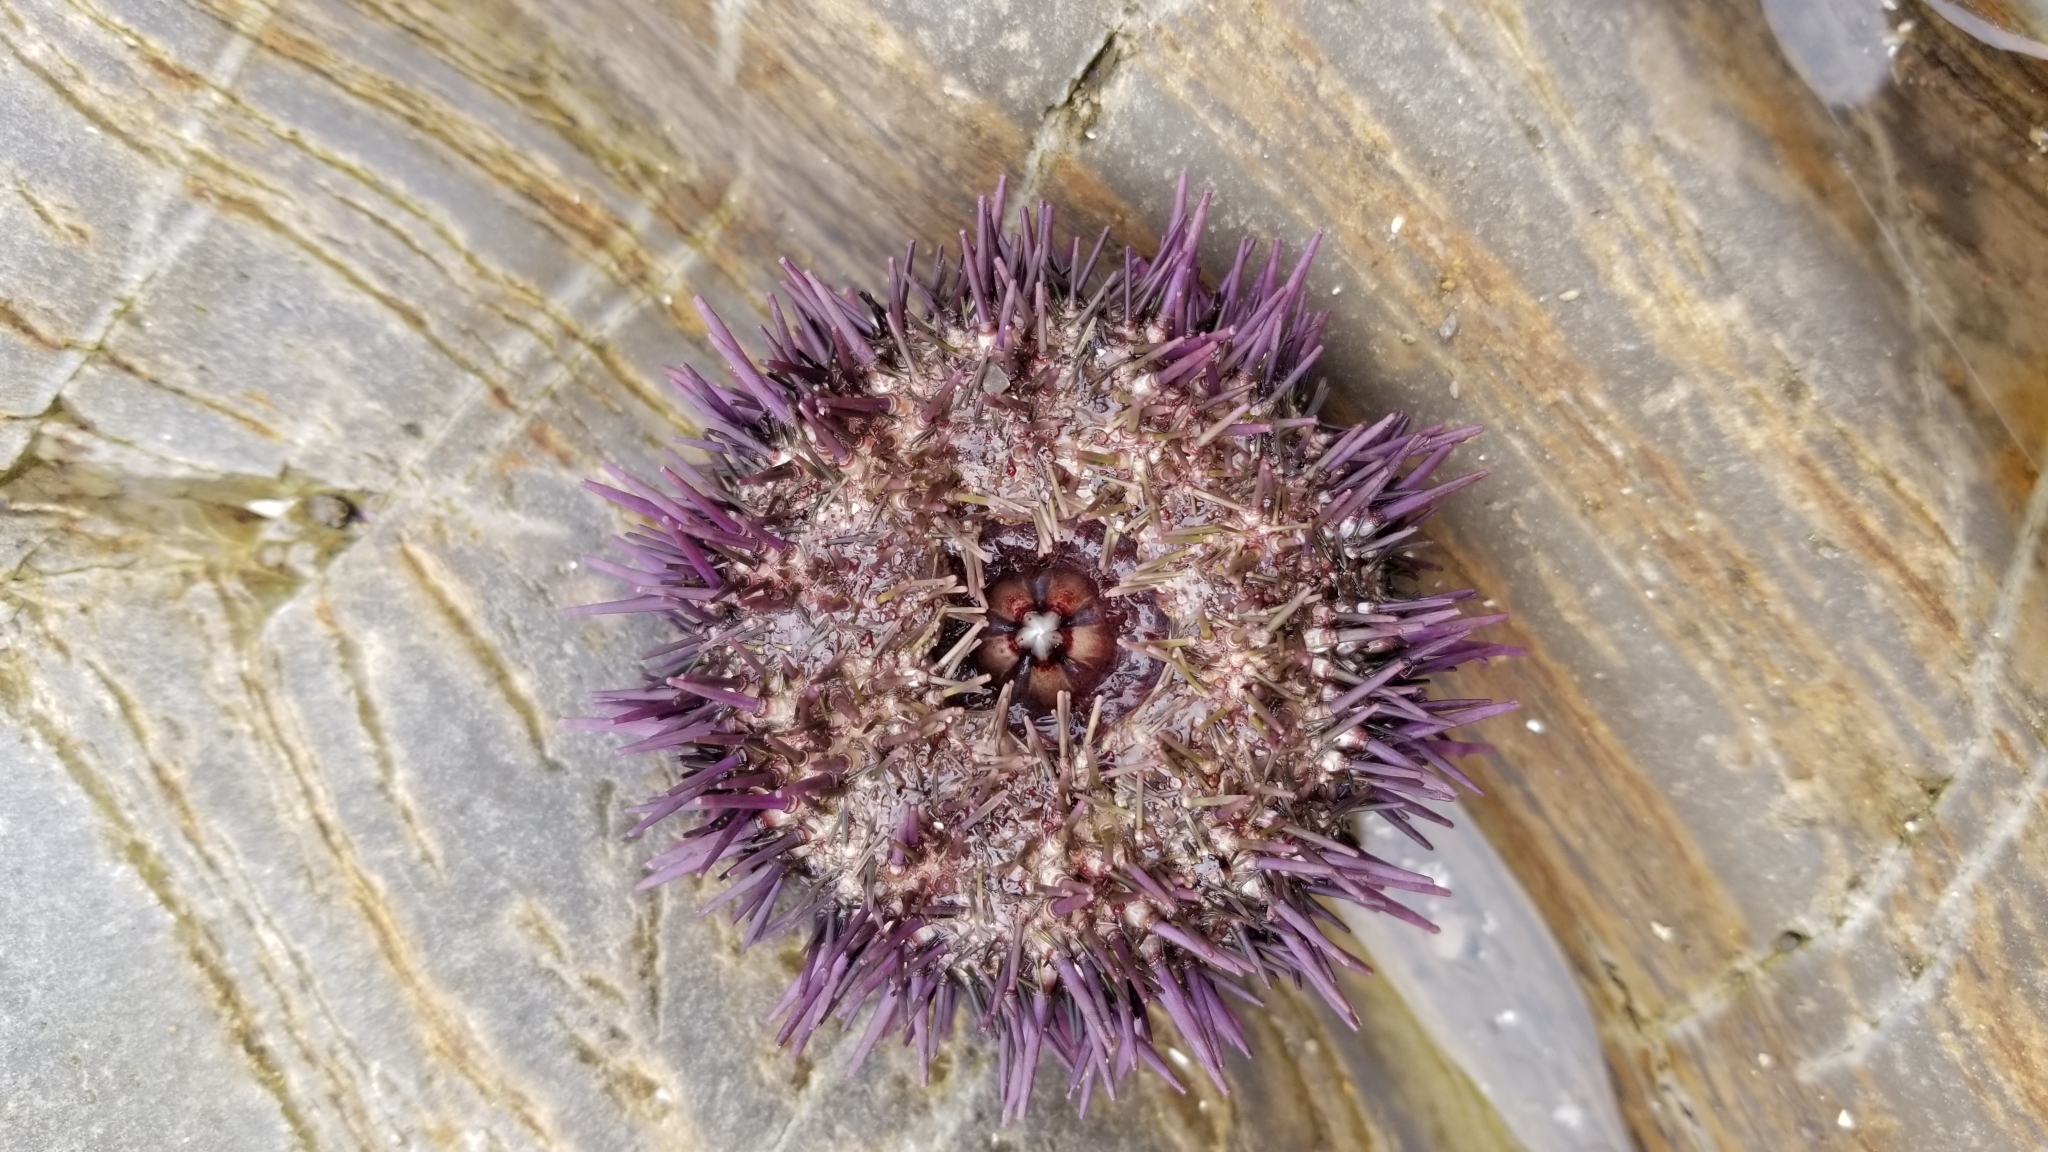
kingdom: Animalia
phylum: Echinodermata
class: Echinoidea
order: Camarodonta
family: Strongylocentrotidae
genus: Strongylocentrotus
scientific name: Strongylocentrotus purpuratus
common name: Purple sea urchin
